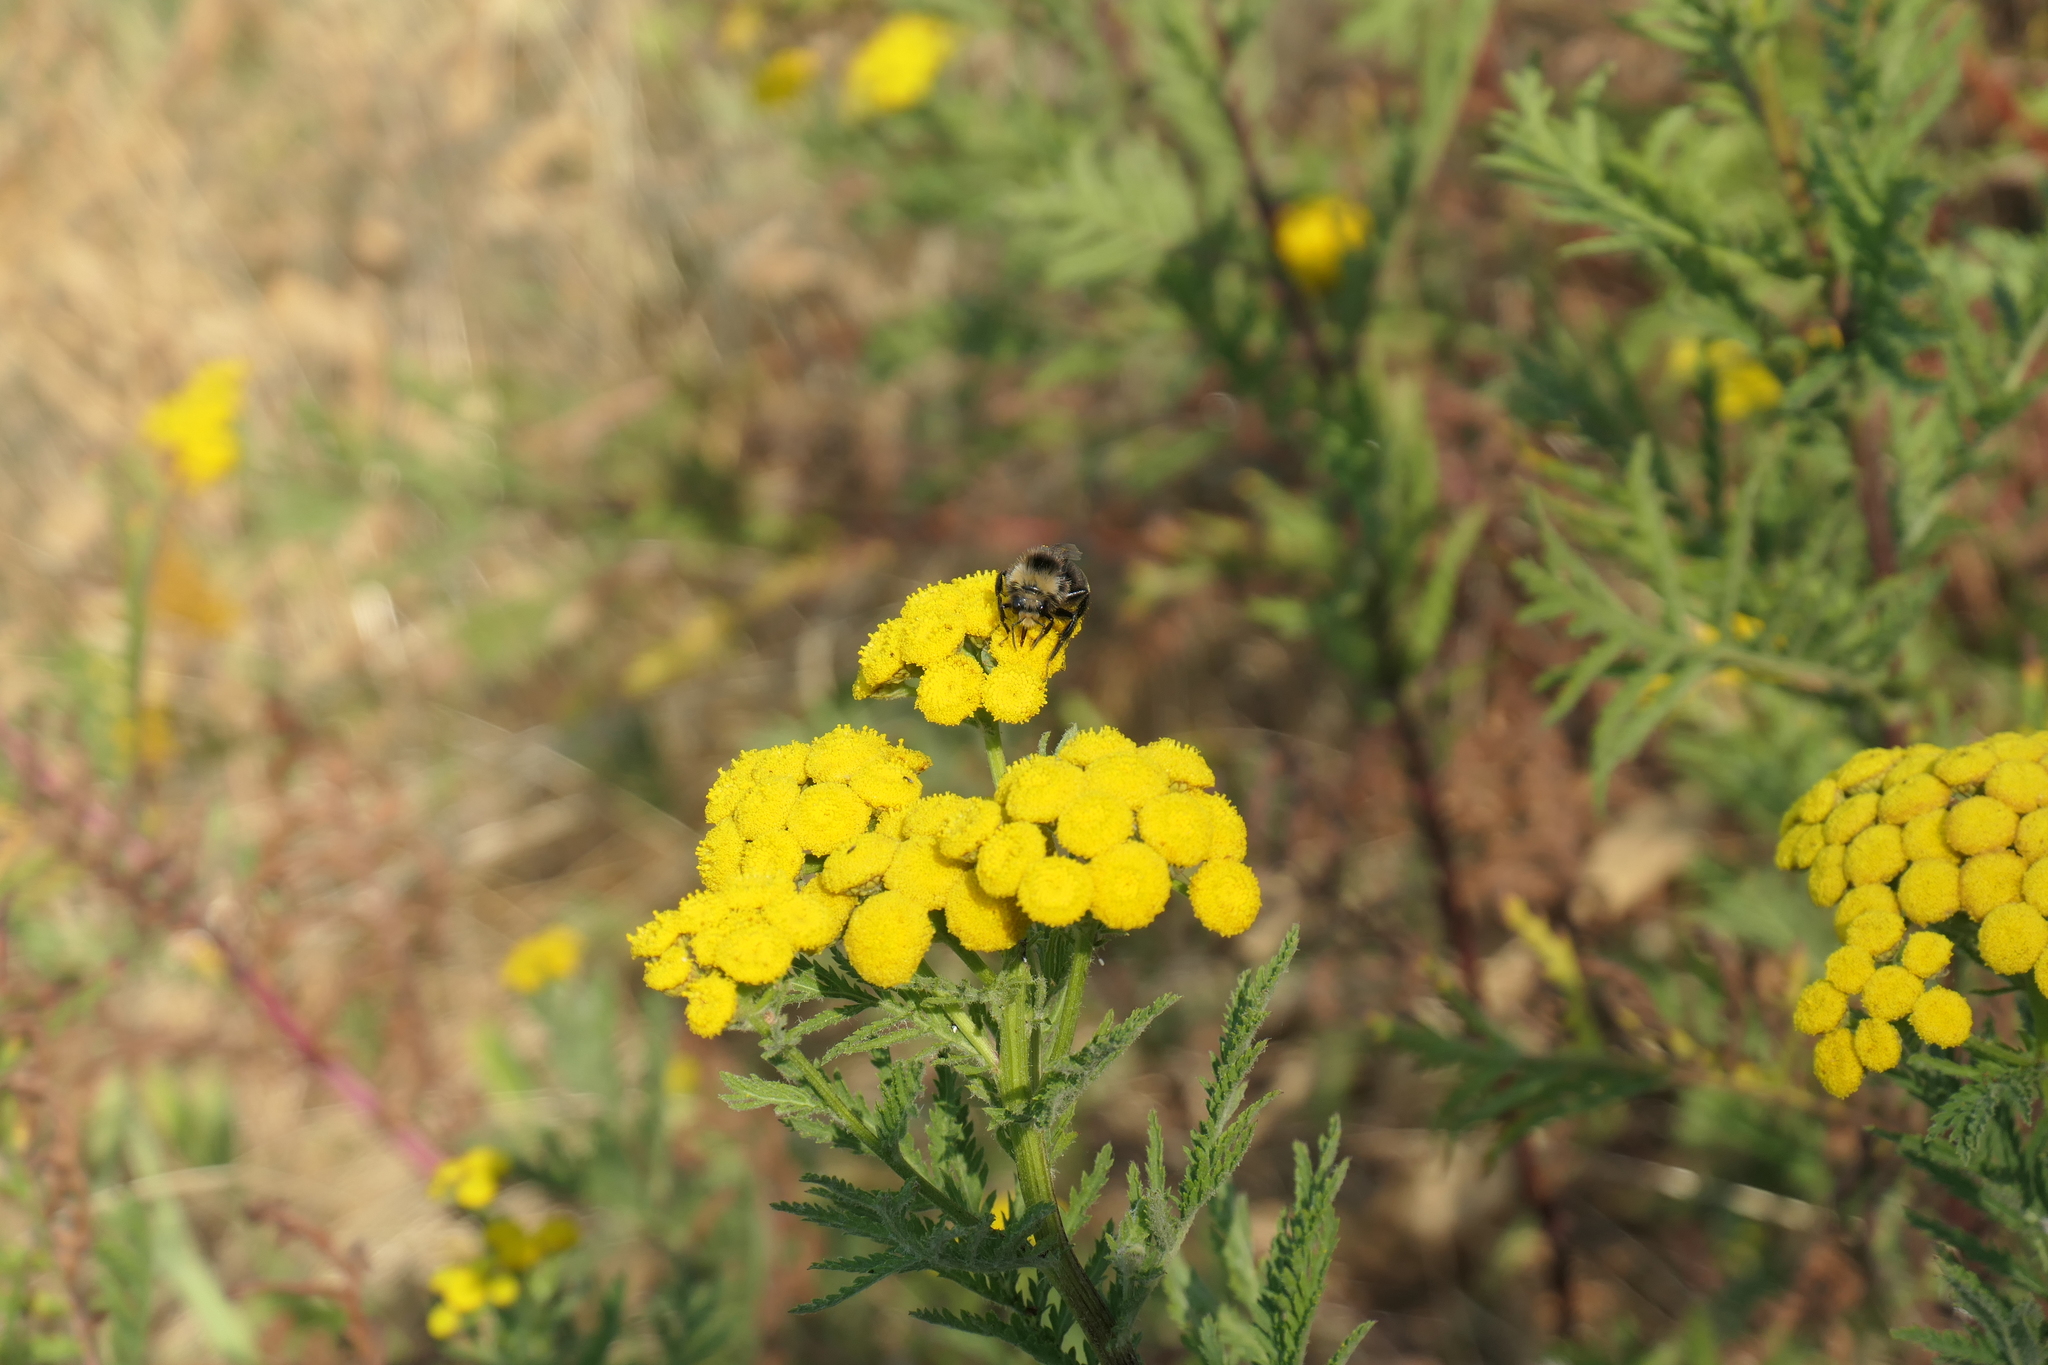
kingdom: Plantae
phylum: Tracheophyta
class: Magnoliopsida
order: Asterales
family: Asteraceae
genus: Tanacetum
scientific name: Tanacetum vulgare
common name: Common tansy
